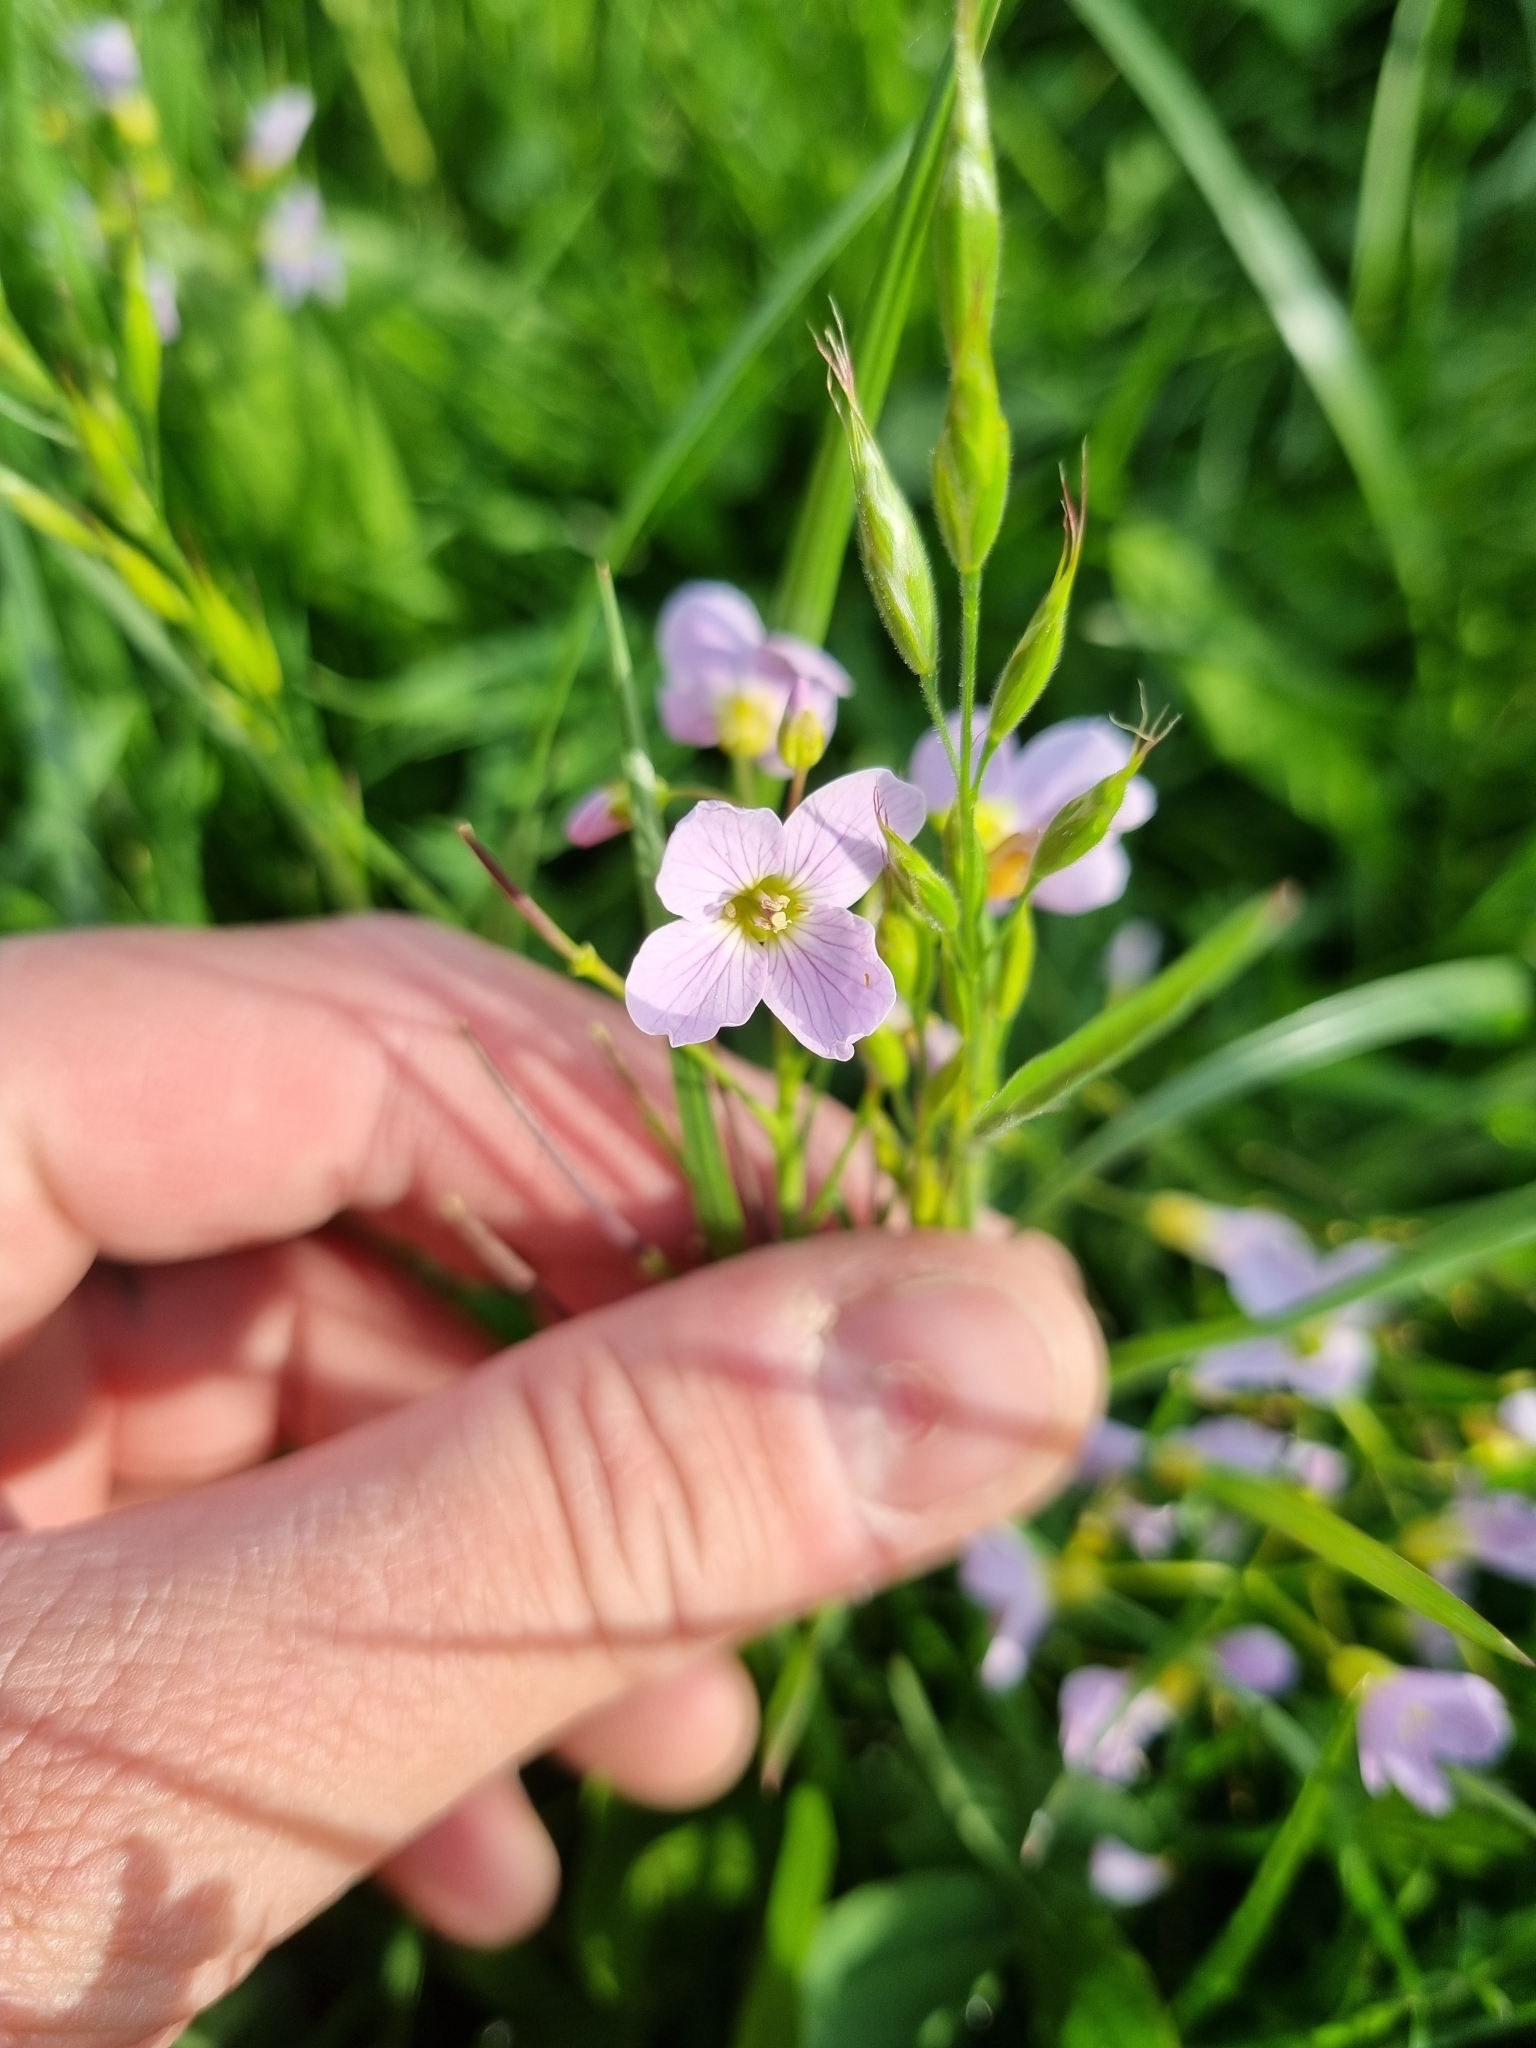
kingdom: Plantae
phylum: Tracheophyta
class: Magnoliopsida
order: Brassicales
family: Brassicaceae
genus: Cardamine
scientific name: Cardamine pratensis
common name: Cuckoo flower
